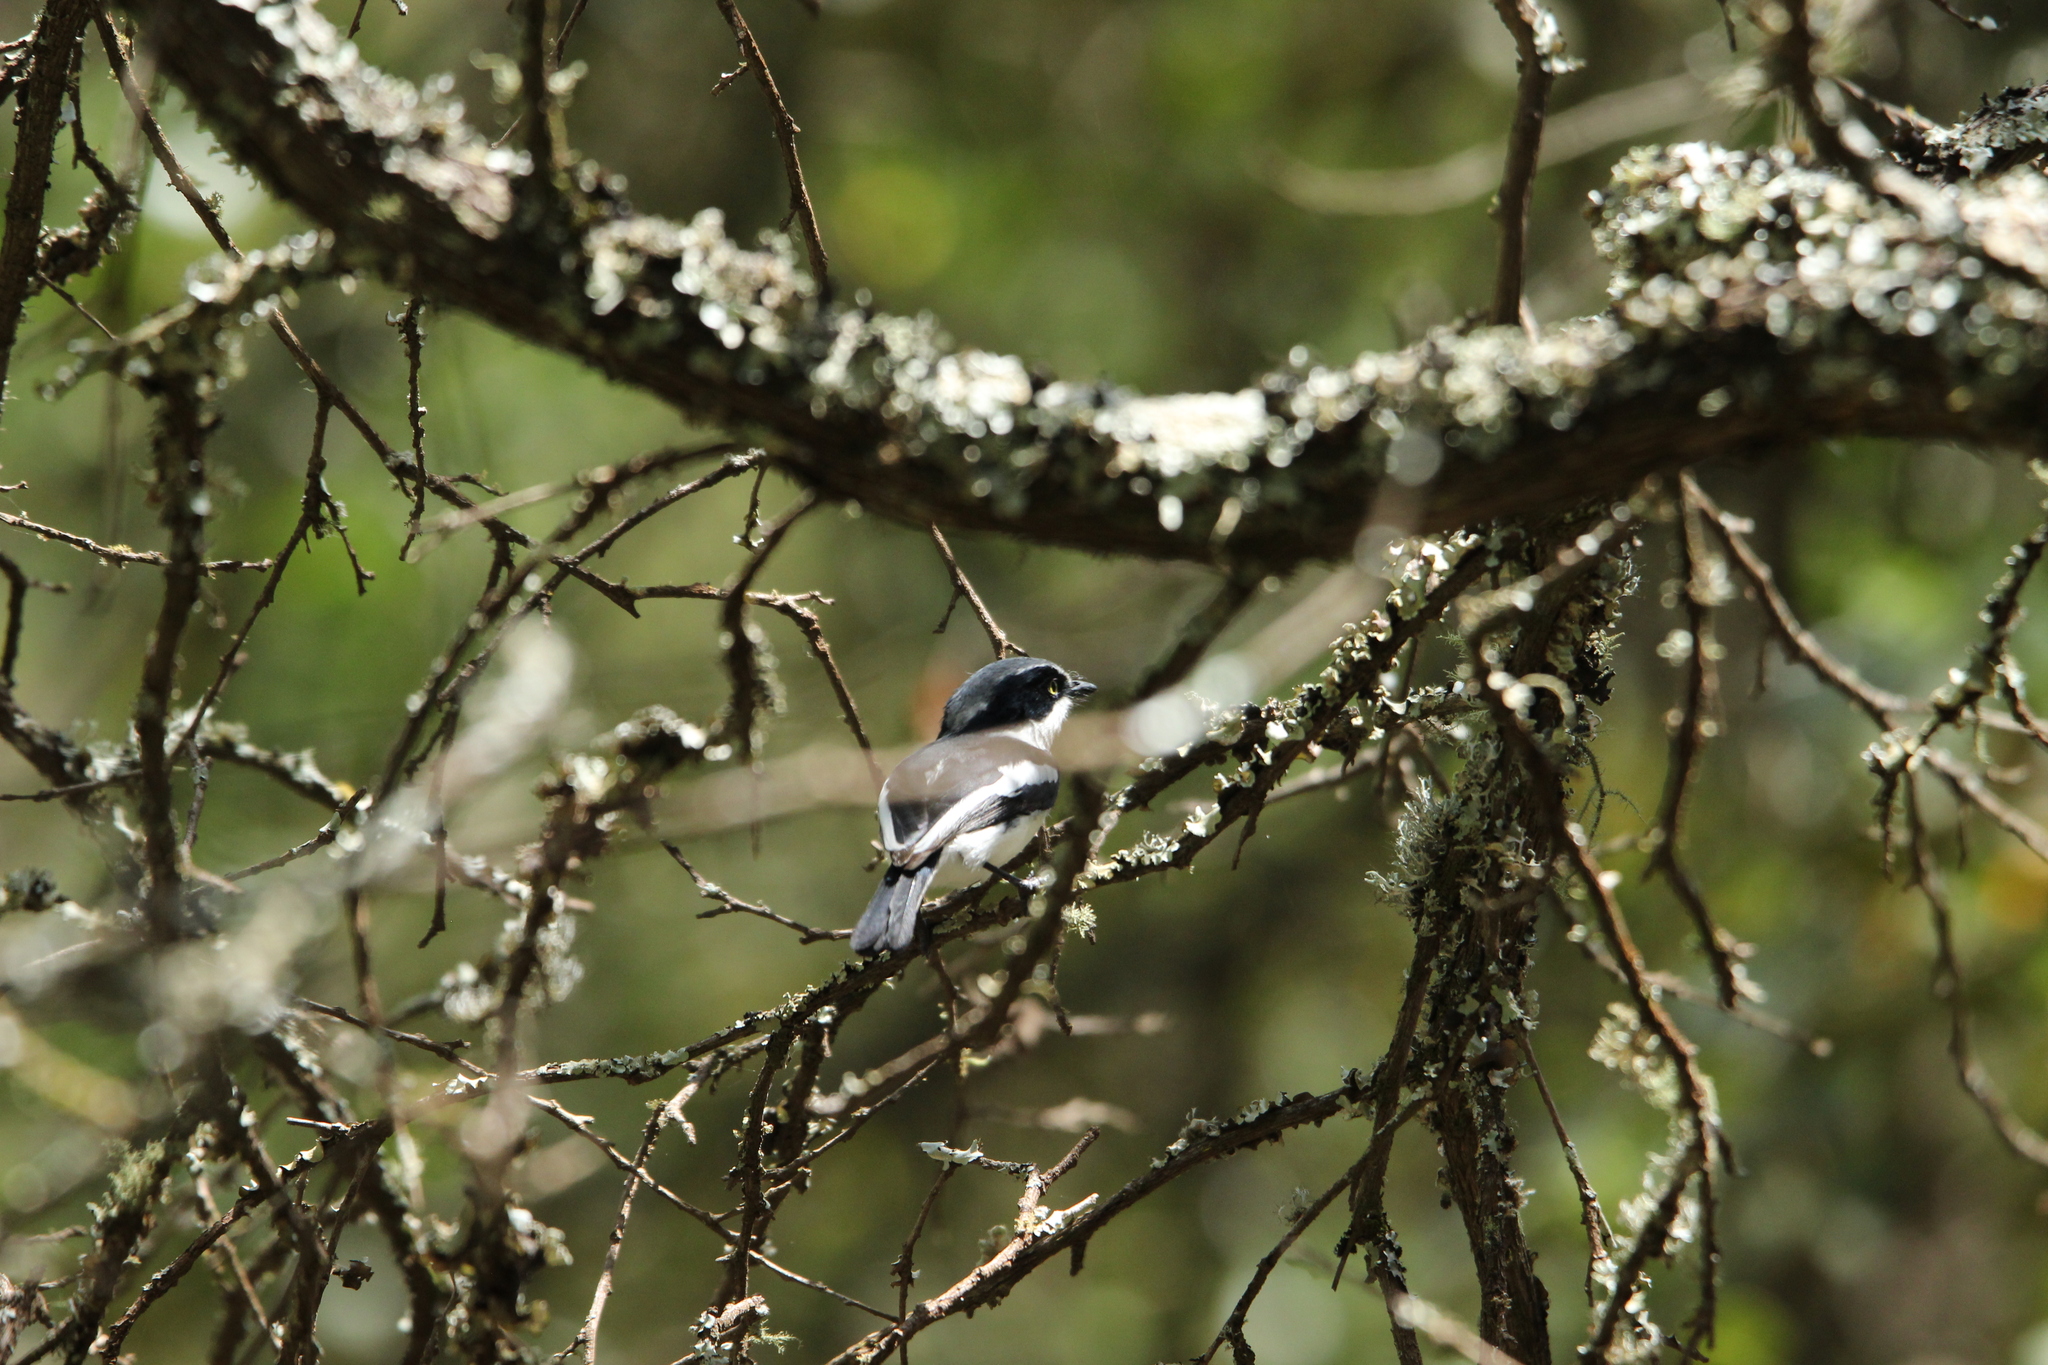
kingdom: Animalia
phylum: Chordata
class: Aves
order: Passeriformes
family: Platysteiridae
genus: Batis
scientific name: Batis molitor
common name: Chinspot batis
